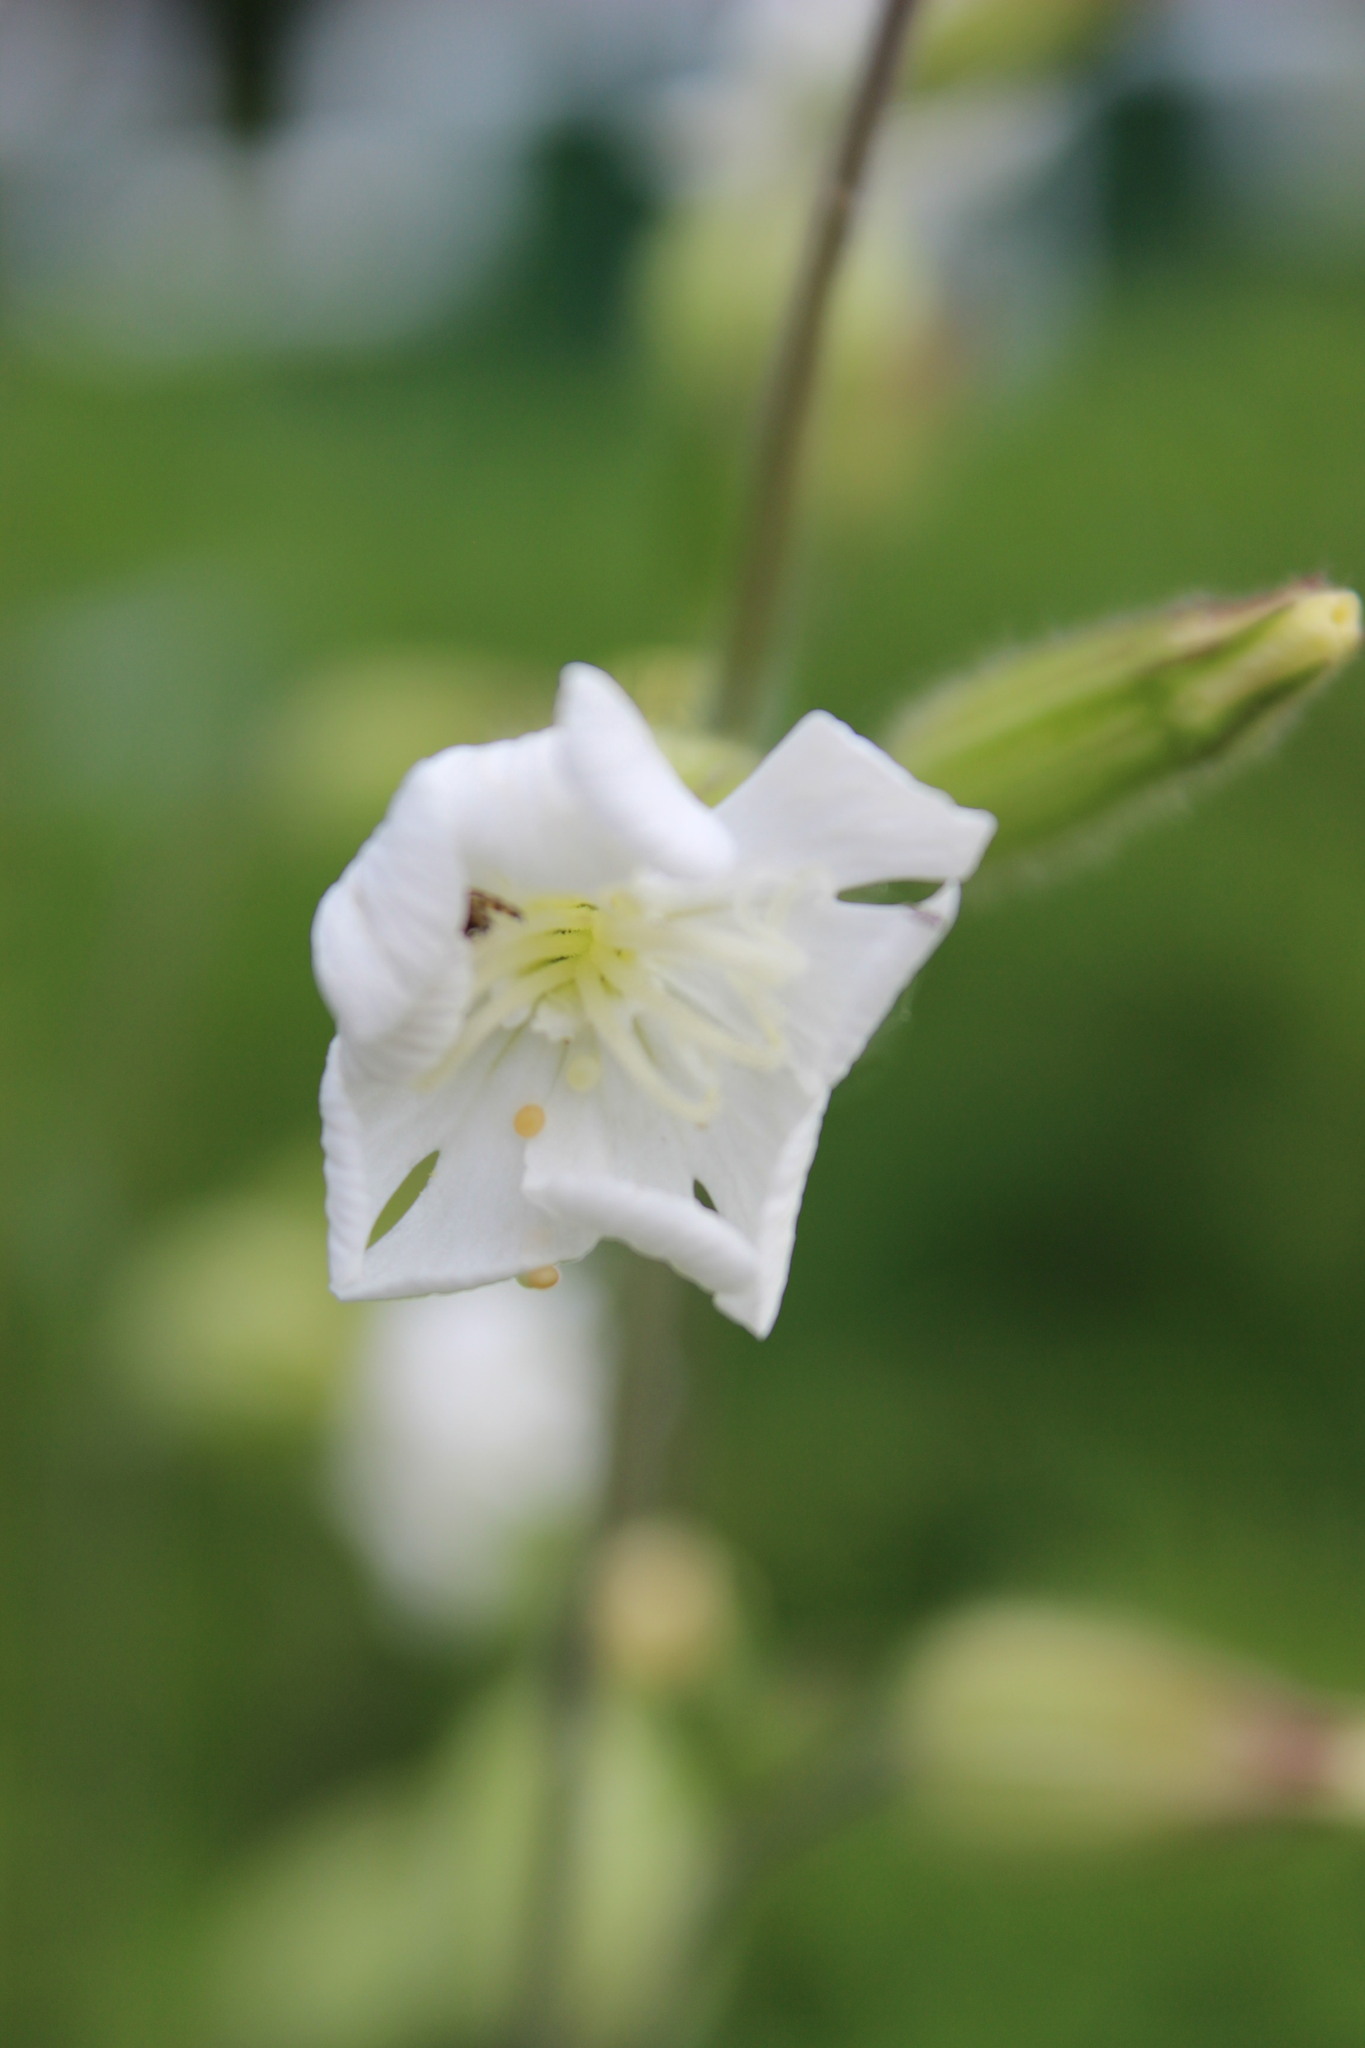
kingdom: Plantae
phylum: Tracheophyta
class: Magnoliopsida
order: Caryophyllales
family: Caryophyllaceae
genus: Silene
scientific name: Silene latifolia
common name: White campion
